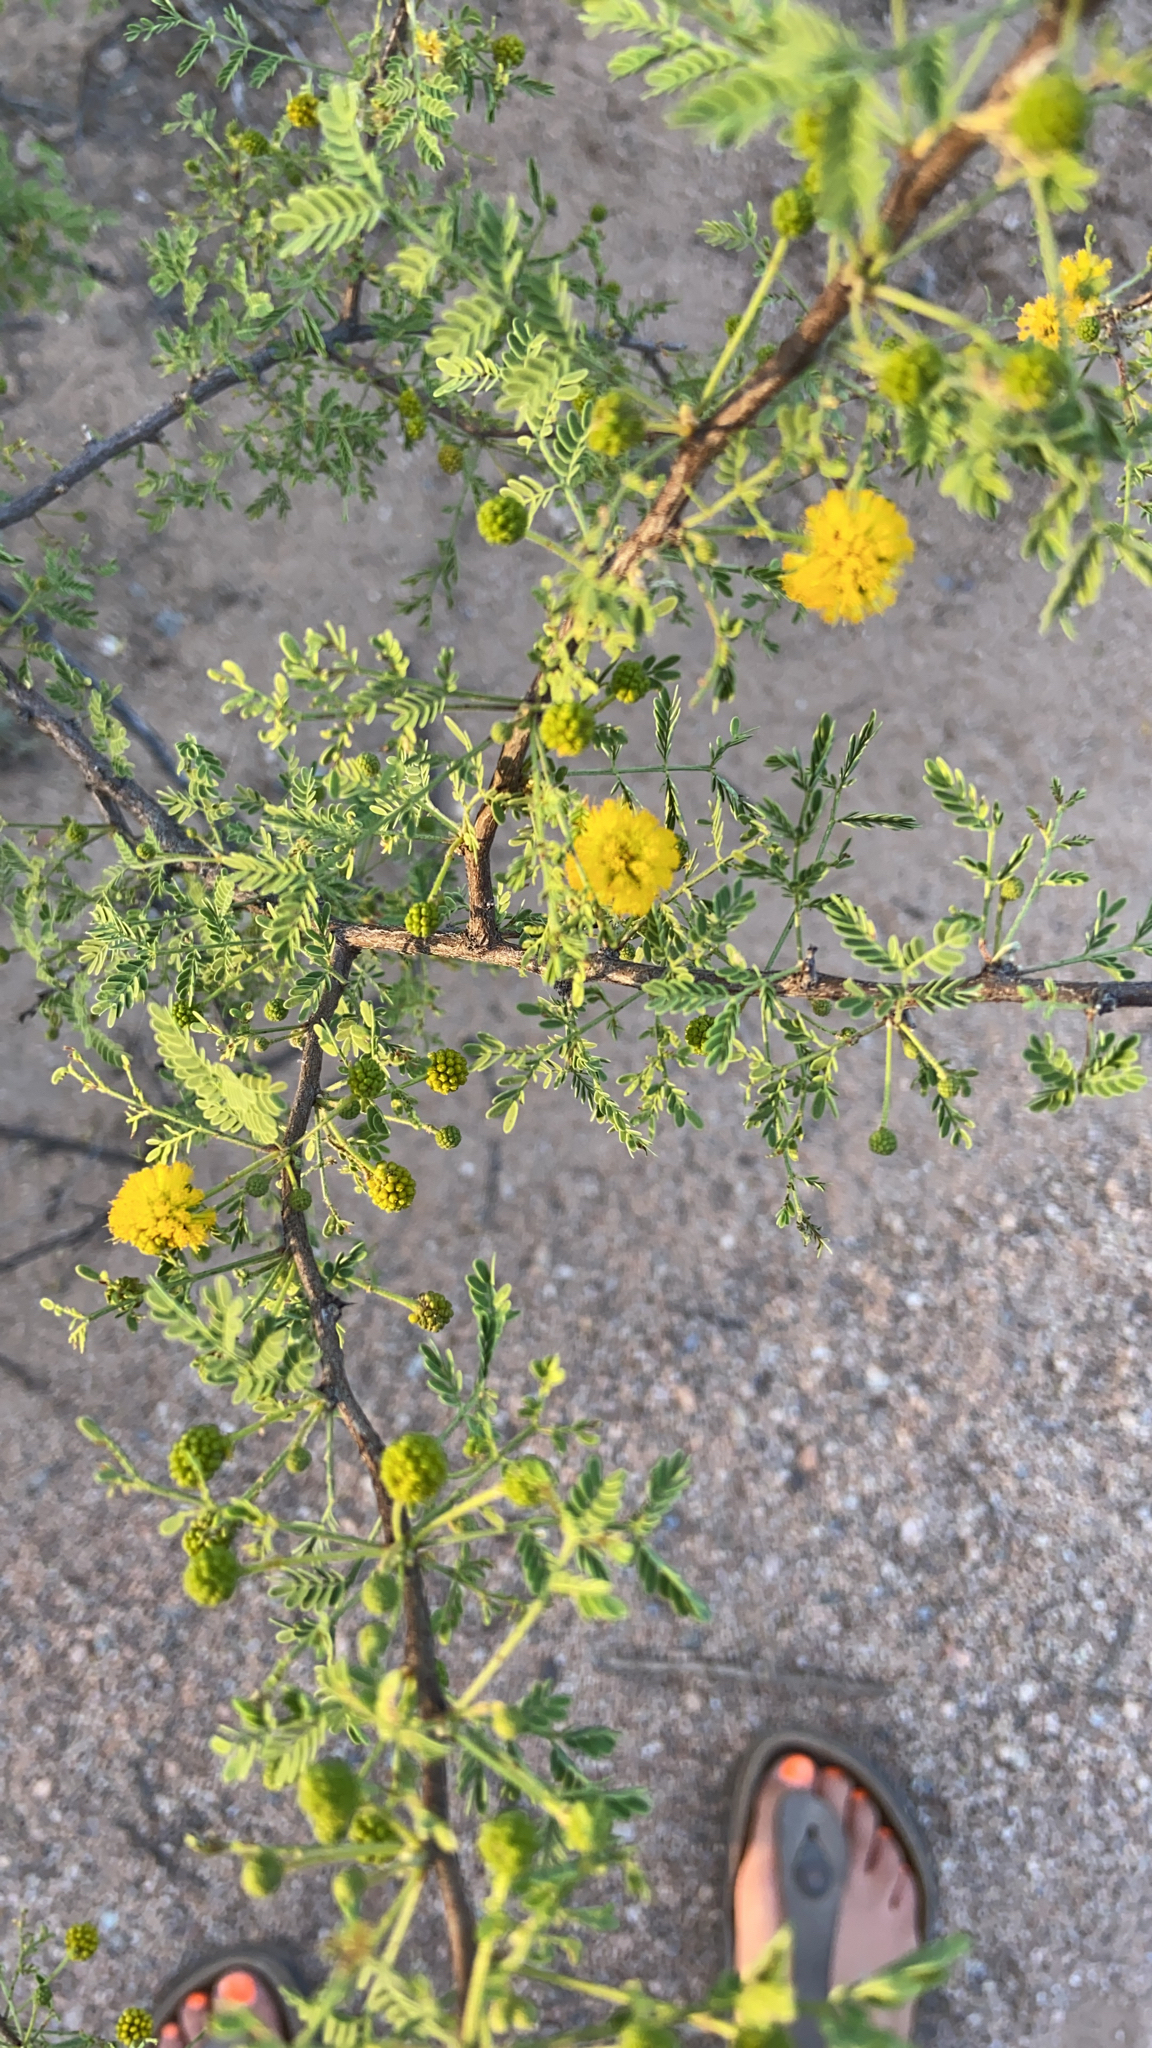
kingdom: Plantae
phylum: Tracheophyta
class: Magnoliopsida
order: Fabales
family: Fabaceae
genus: Vachellia
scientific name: Vachellia constricta
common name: Mescat acacia
